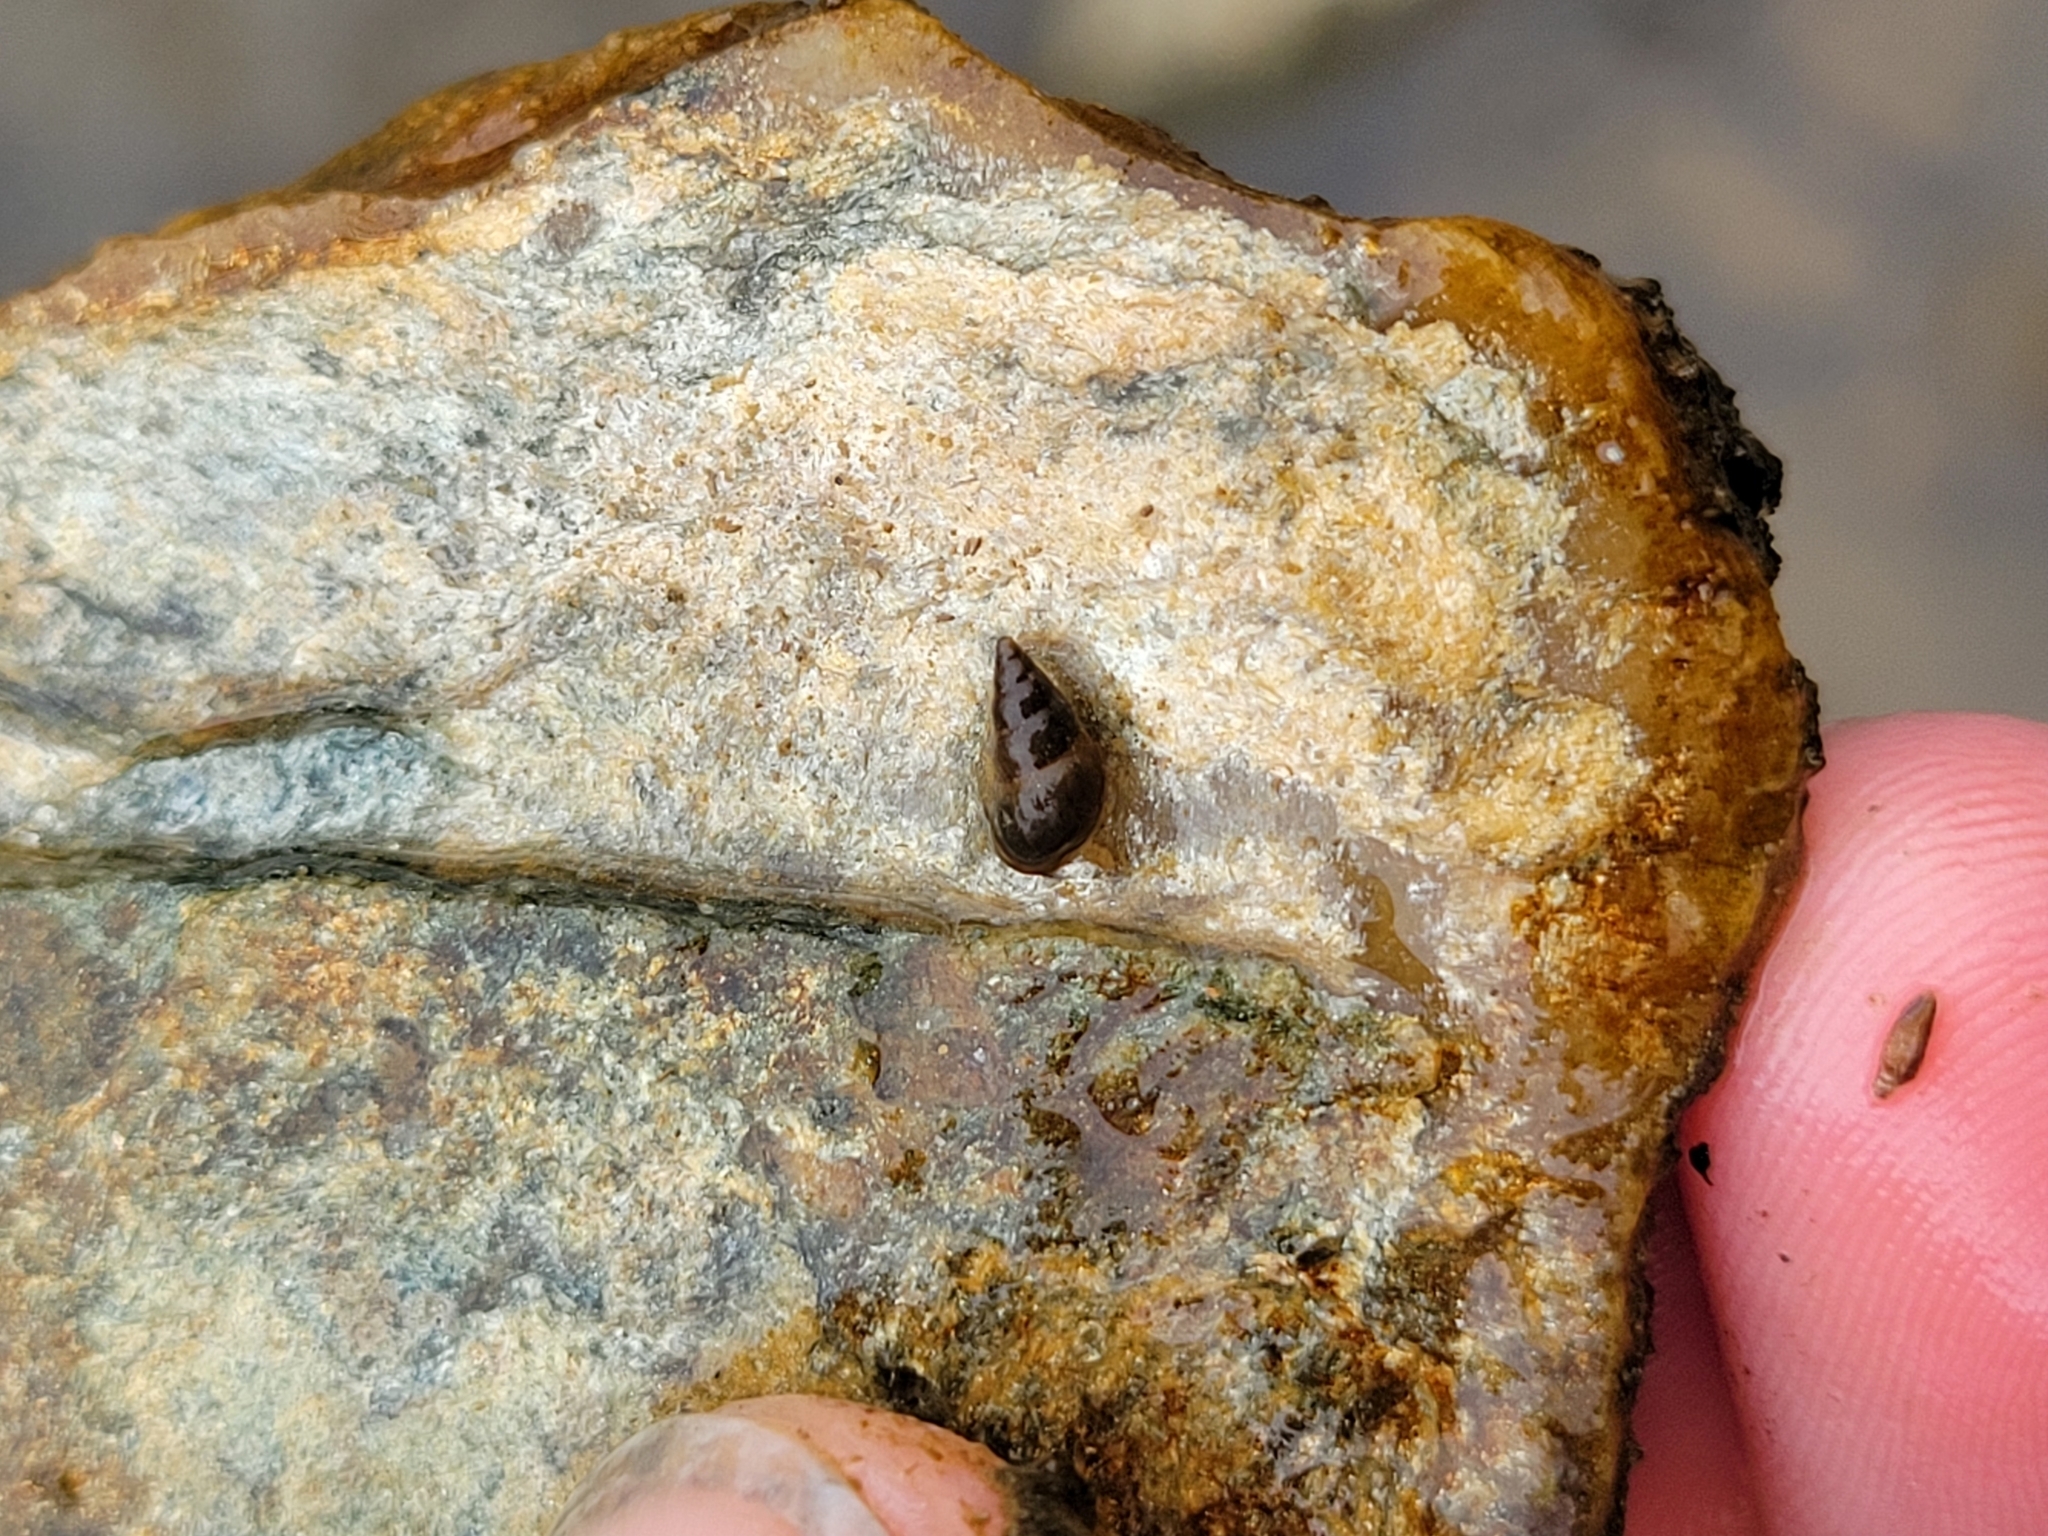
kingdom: Animalia
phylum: Mollusca
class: Gastropoda
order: Littorinimorpha
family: Tateidae
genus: Potamopyrgus
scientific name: Potamopyrgus antipodarum
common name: Jenkins' spire snail
